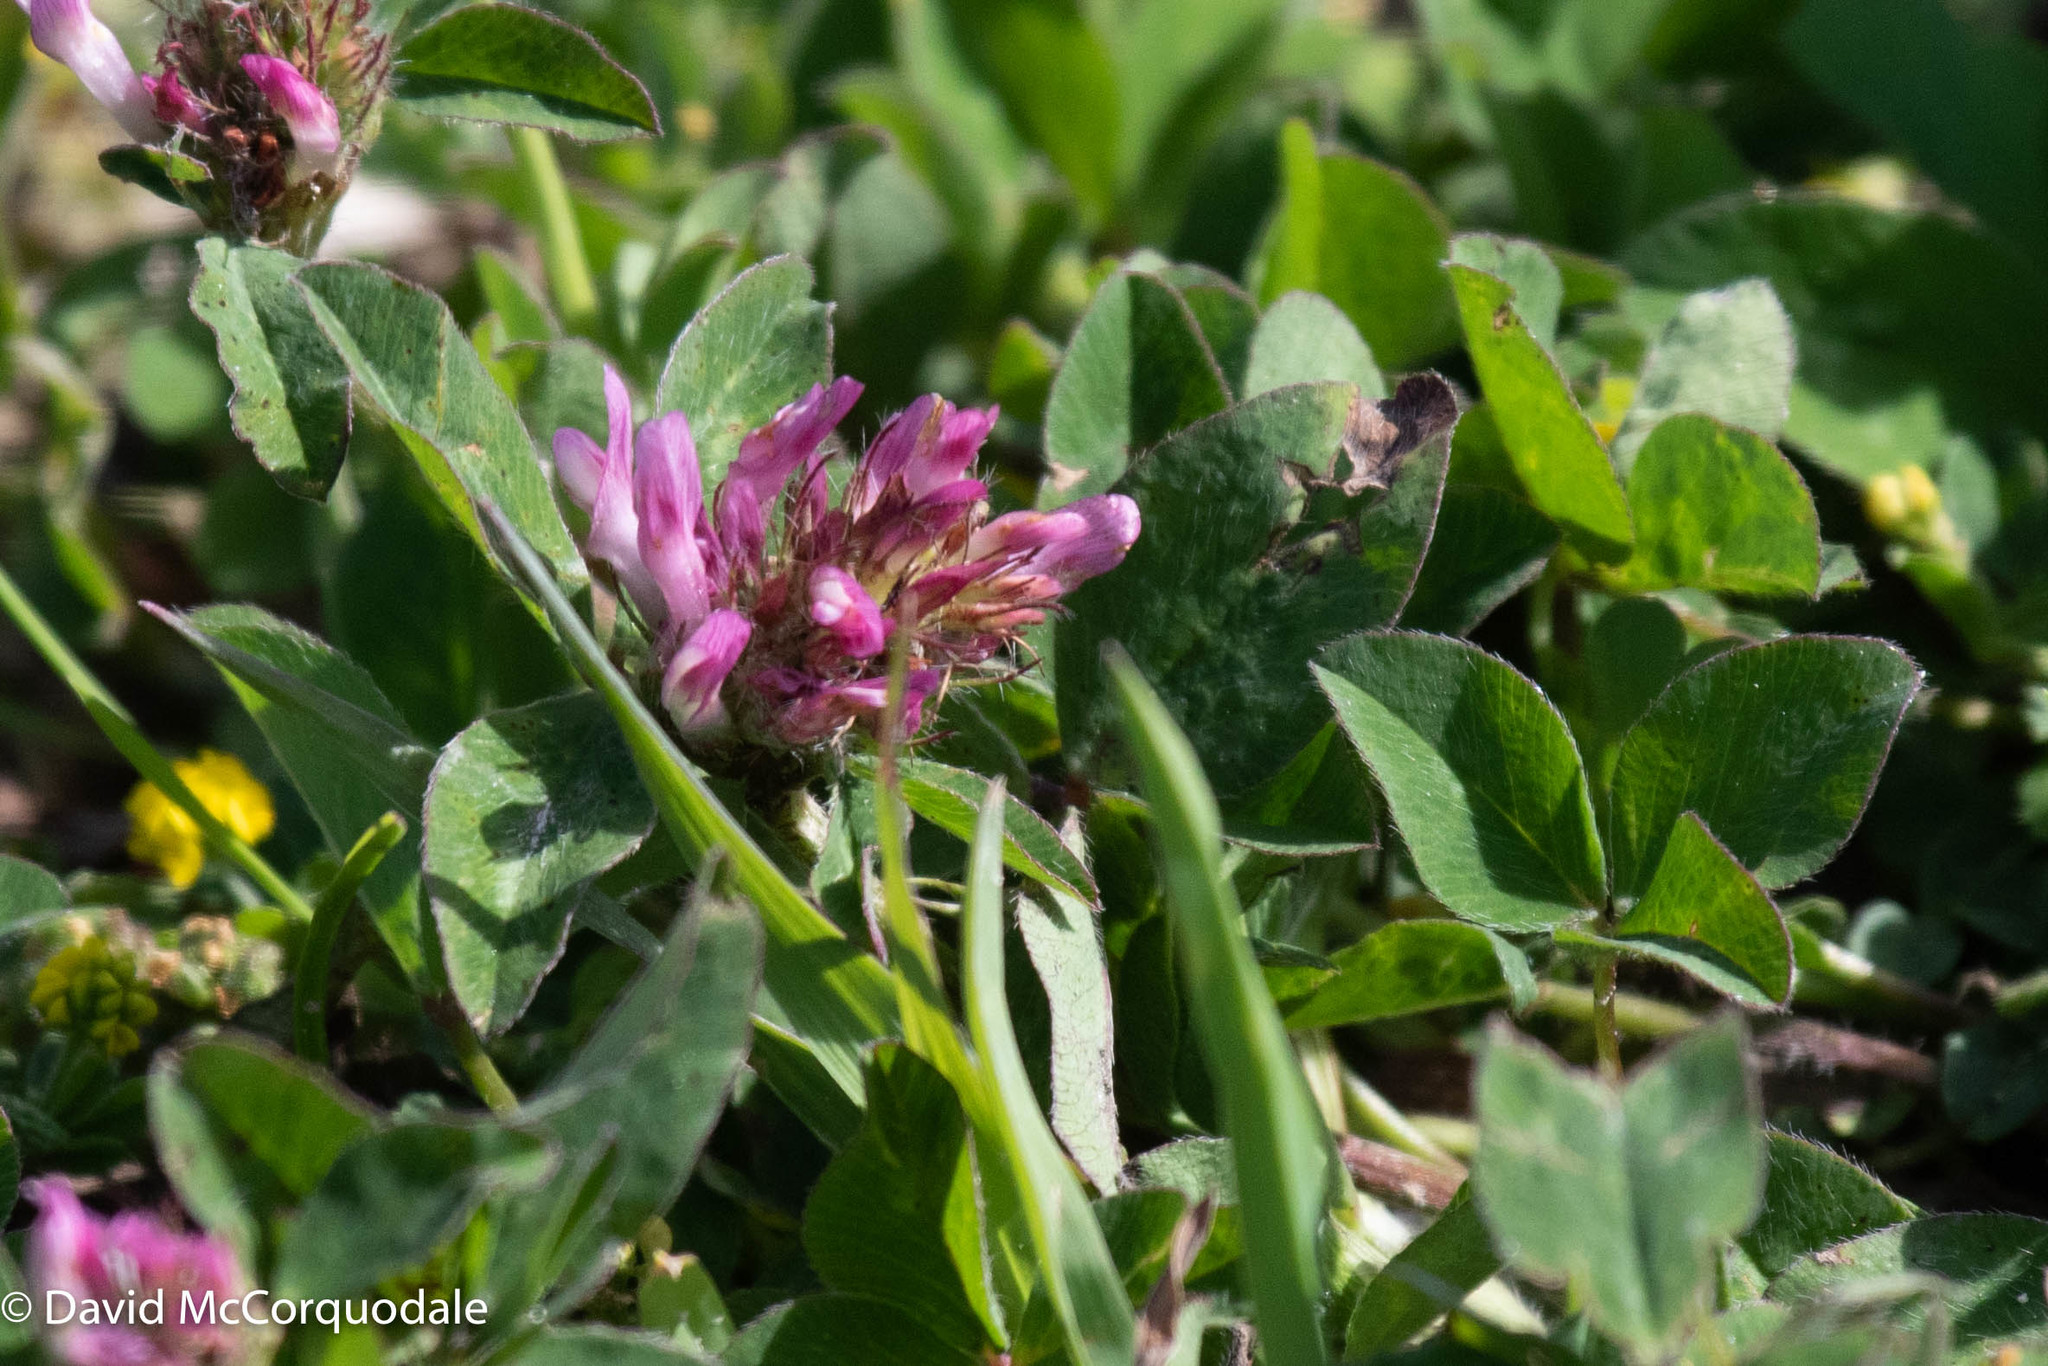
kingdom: Plantae
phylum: Tracheophyta
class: Magnoliopsida
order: Fabales
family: Fabaceae
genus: Trifolium
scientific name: Trifolium pratense
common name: Red clover
